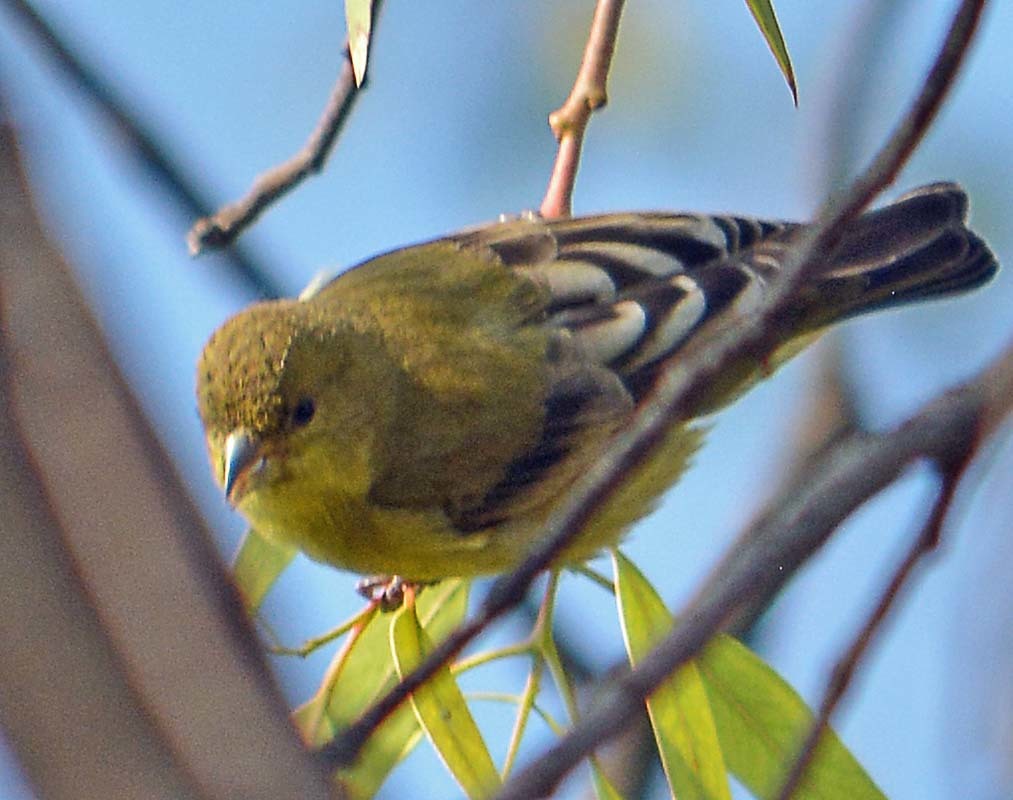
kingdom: Animalia
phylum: Chordata
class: Aves
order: Passeriformes
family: Fringillidae
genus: Spinus
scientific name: Spinus psaltria
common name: Lesser goldfinch
